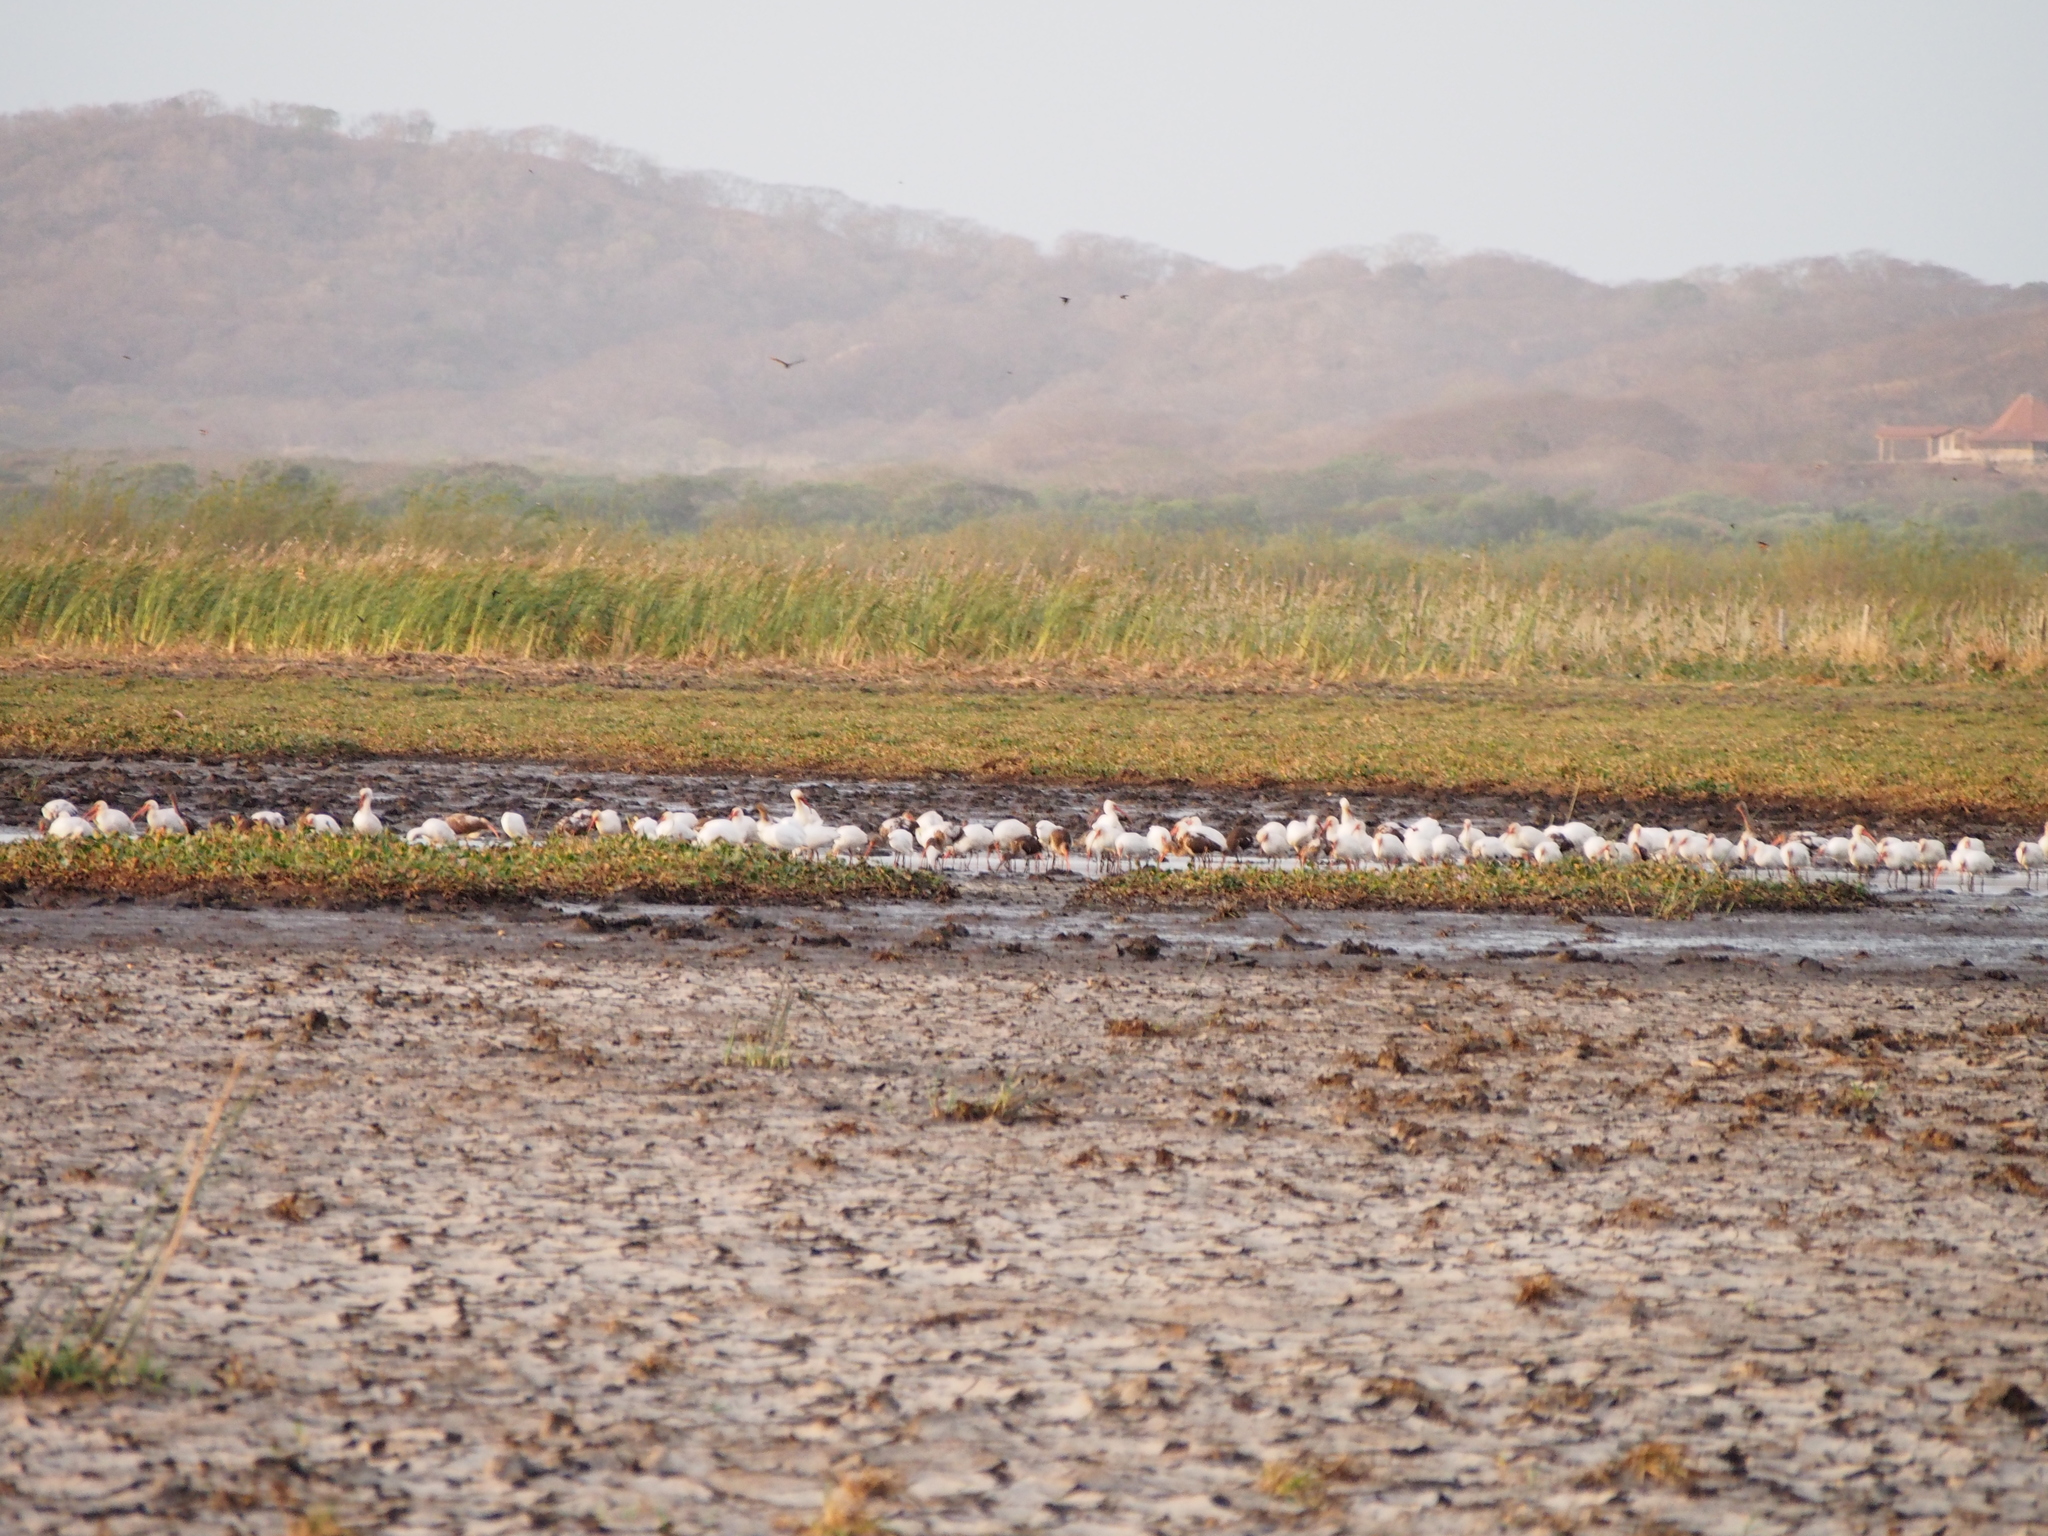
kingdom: Animalia
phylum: Chordata
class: Aves
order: Pelecaniformes
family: Threskiornithidae
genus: Eudocimus
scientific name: Eudocimus albus
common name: White ibis
